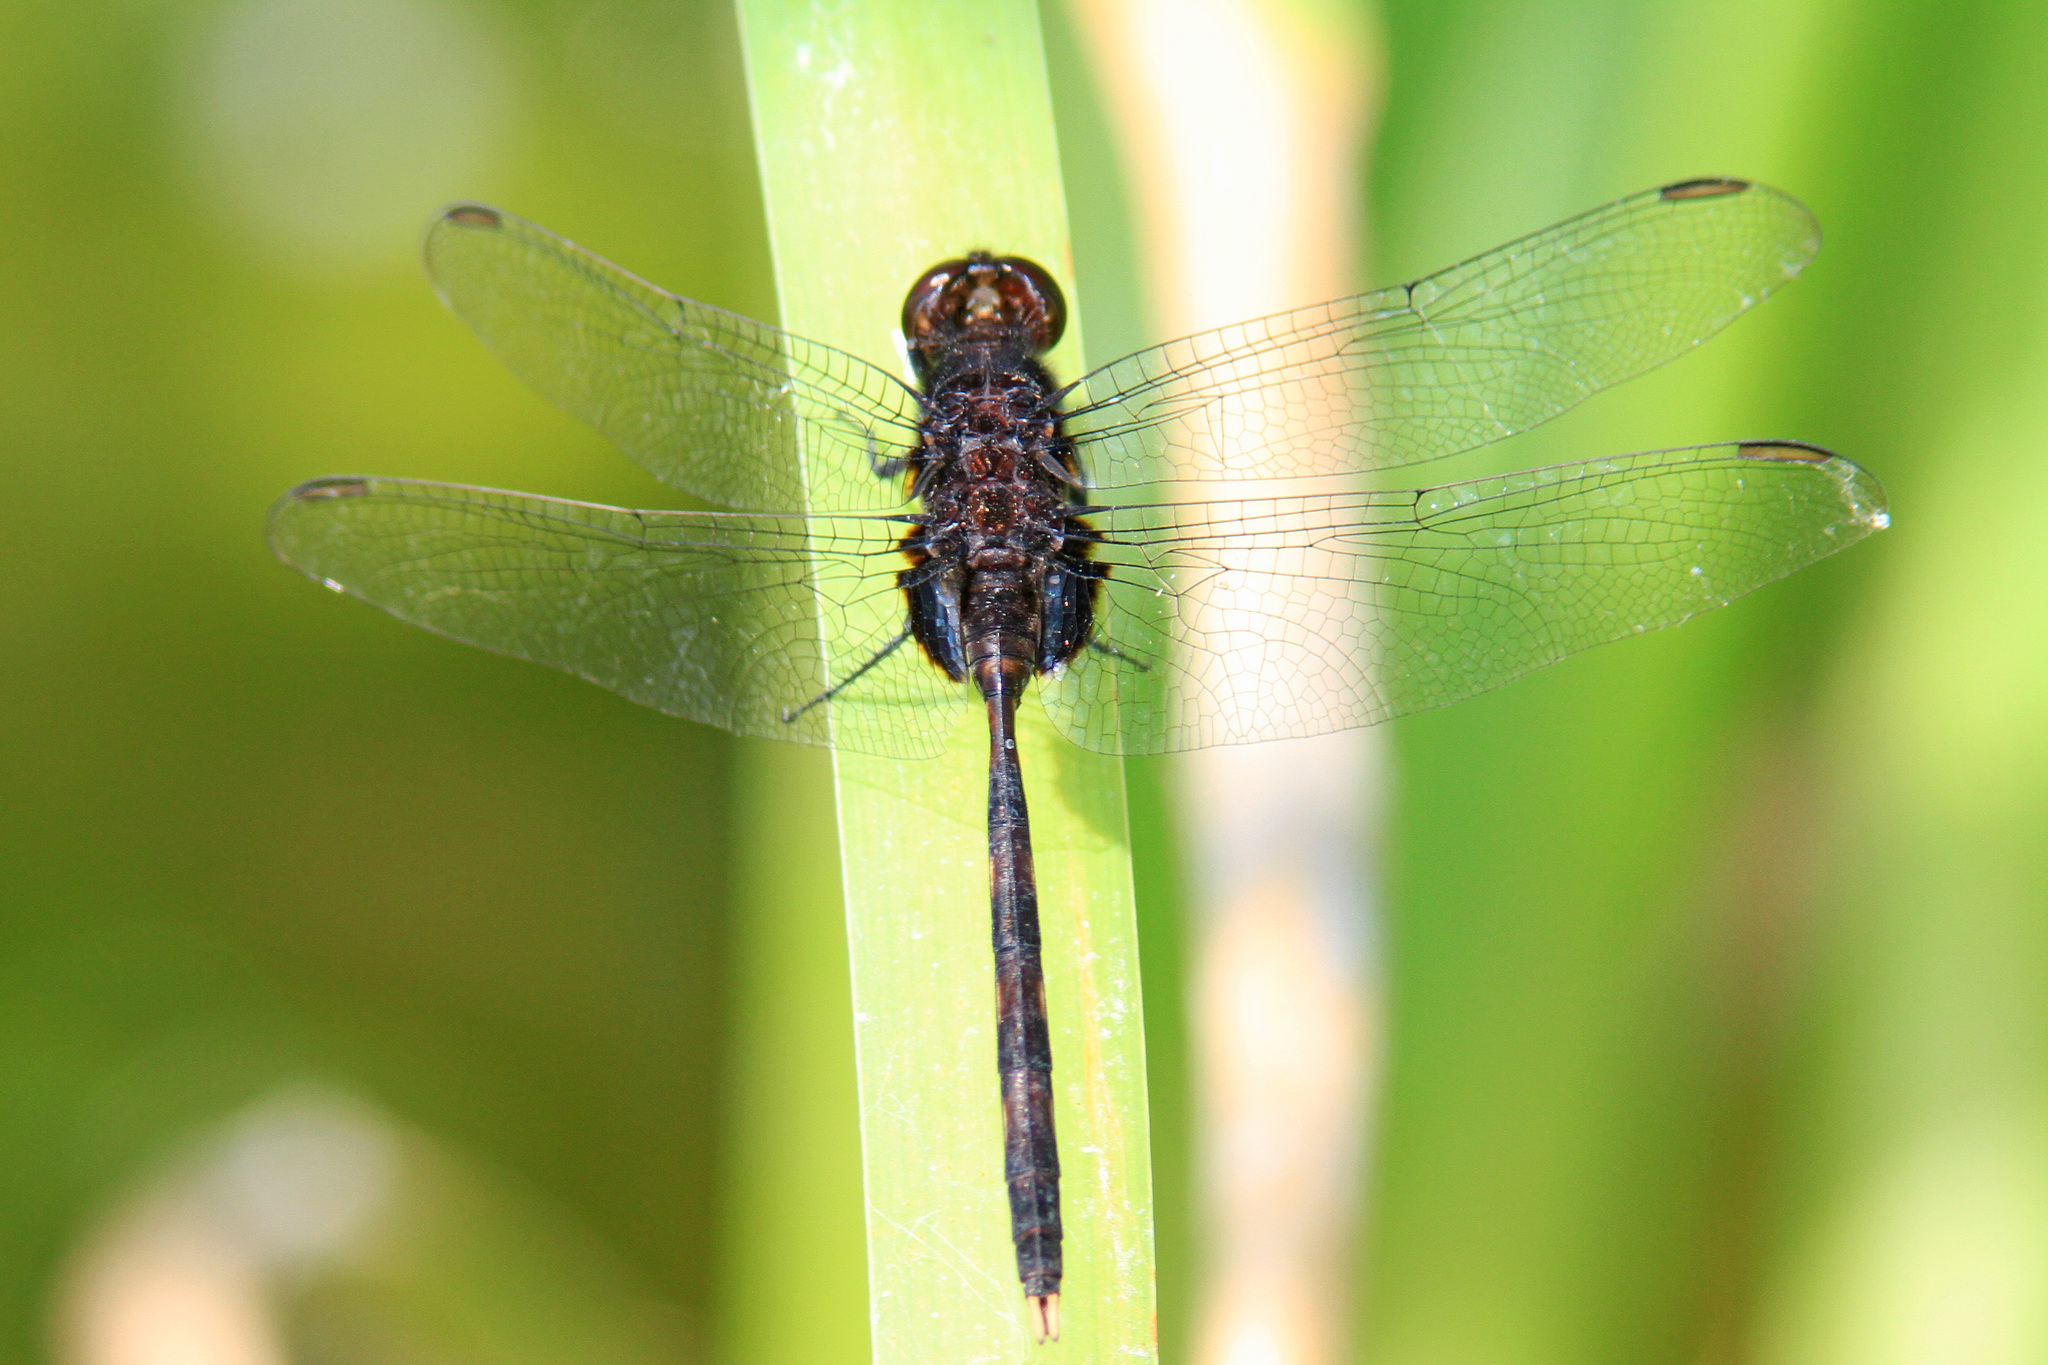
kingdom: Animalia
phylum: Arthropoda
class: Insecta
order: Odonata
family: Libellulidae
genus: Erythemis
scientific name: Erythemis plebeja
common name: Pin-tailed pondhawk
